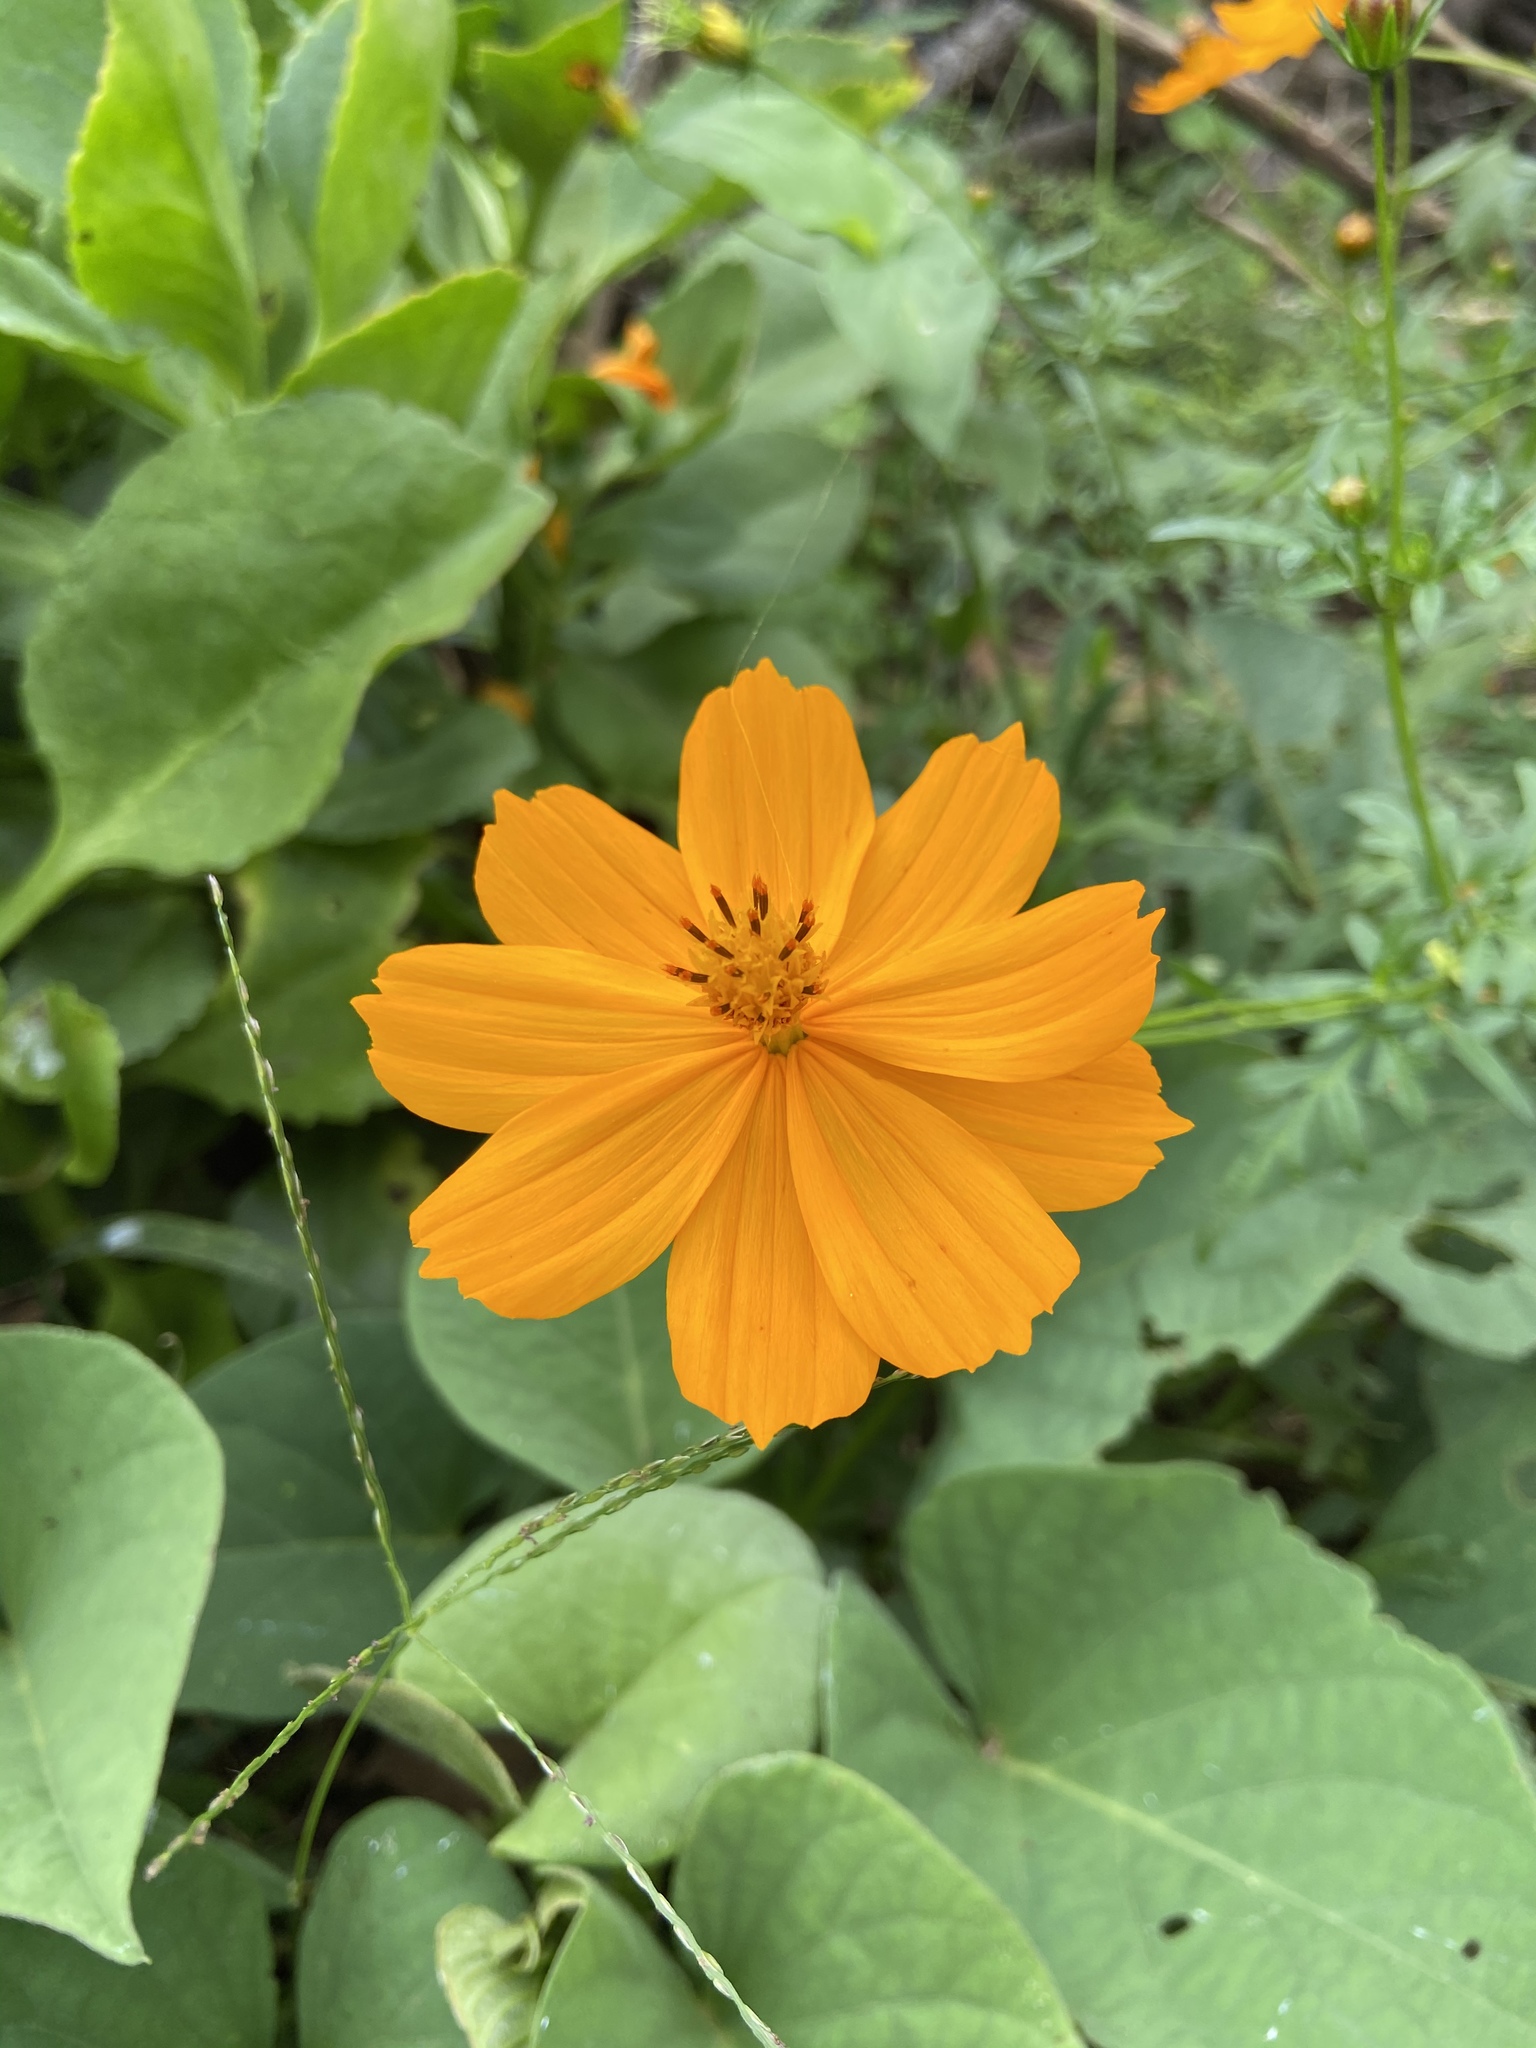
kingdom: Plantae
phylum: Tracheophyta
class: Magnoliopsida
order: Asterales
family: Asteraceae
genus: Cosmos
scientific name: Cosmos sulphureus
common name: Sulphur cosmos
